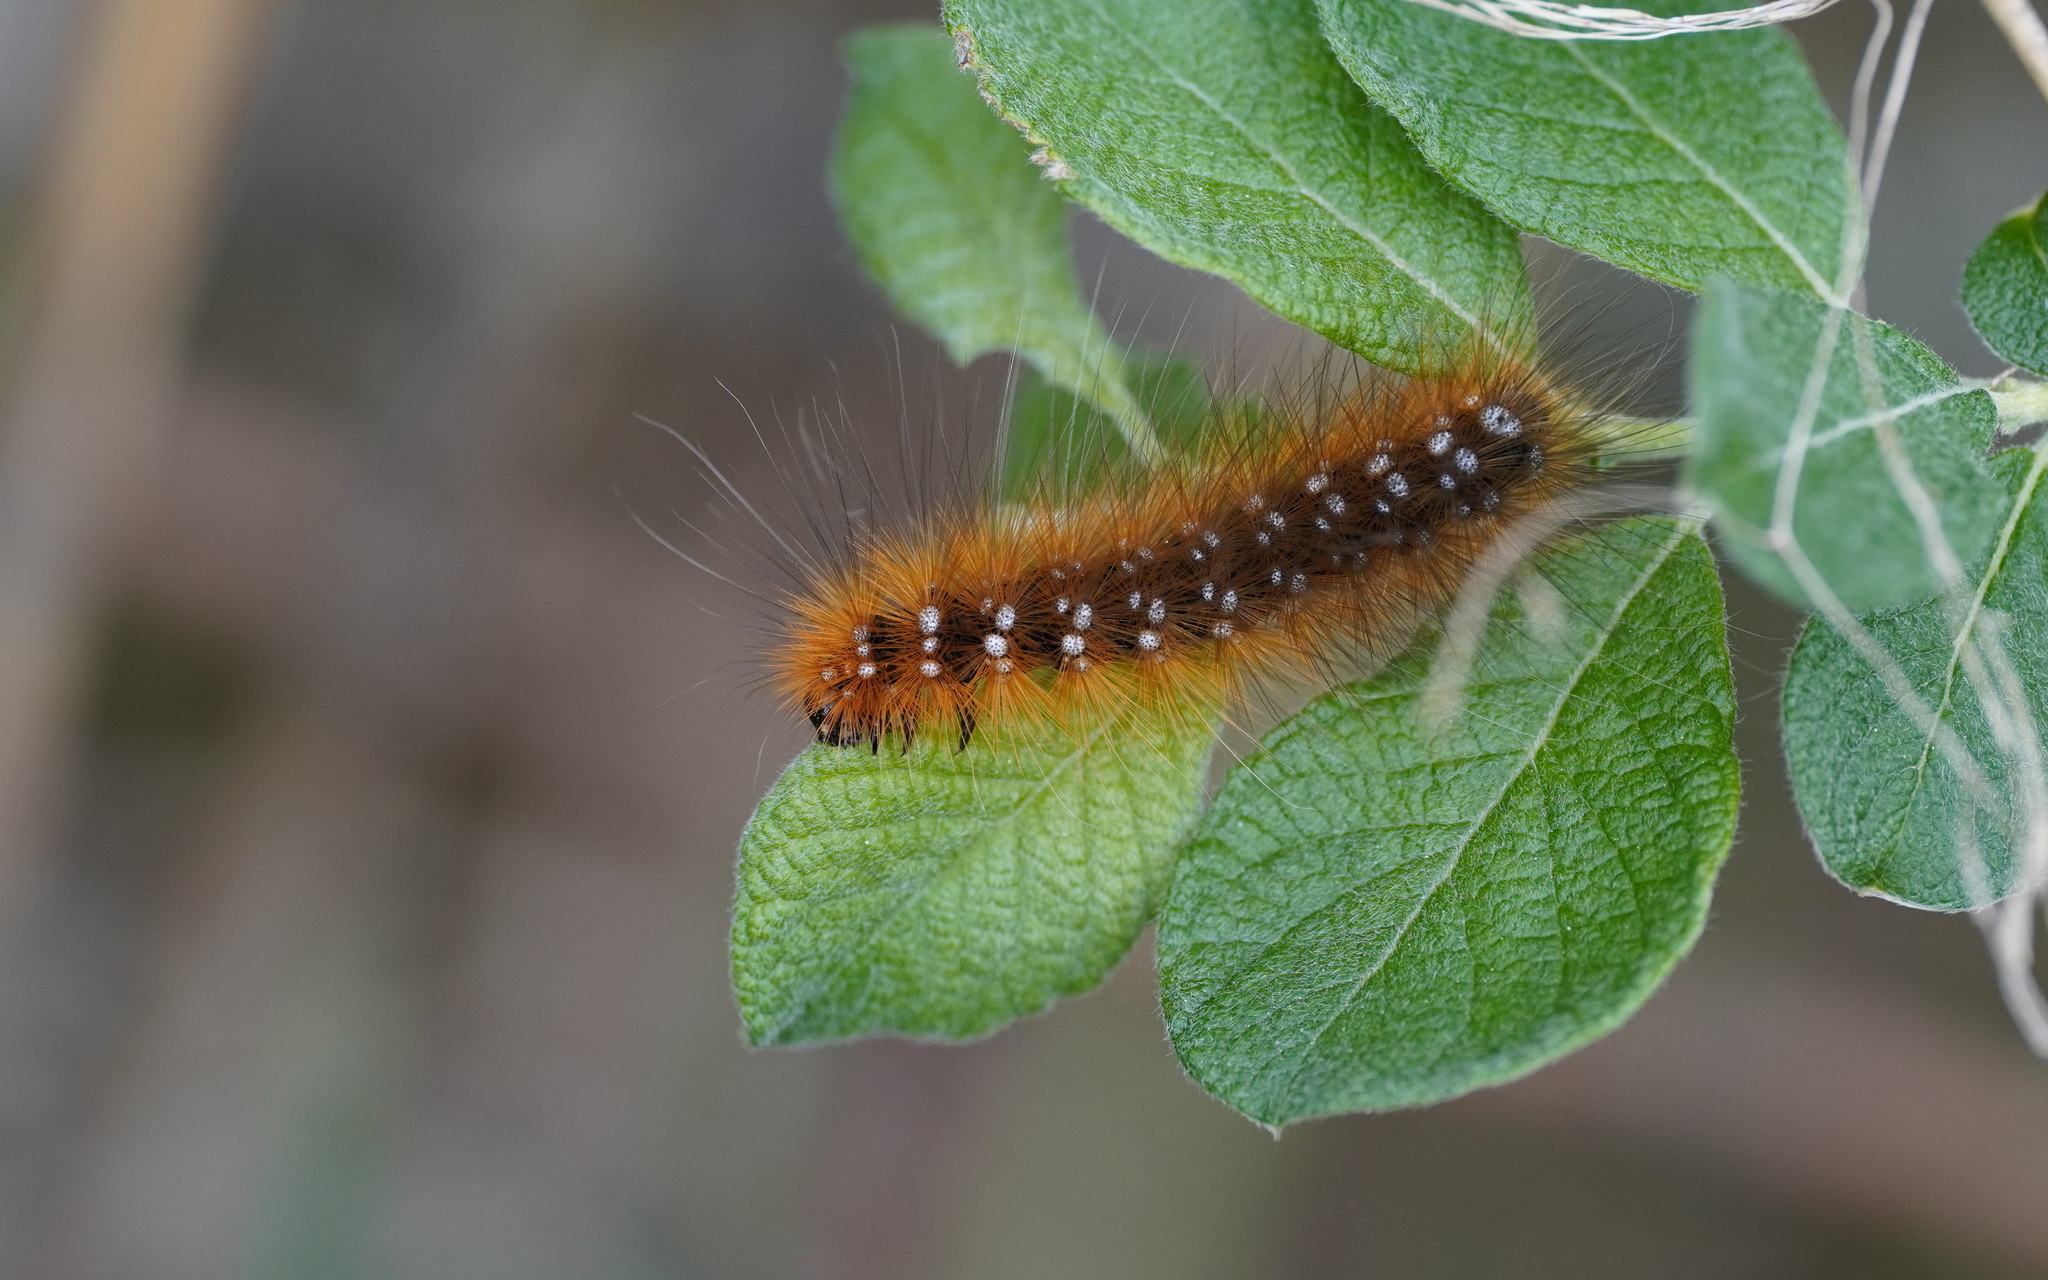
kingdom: Animalia
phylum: Arthropoda
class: Insecta
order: Lepidoptera
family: Erebidae
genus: Arctia
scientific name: Arctia caja
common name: Garden tiger
